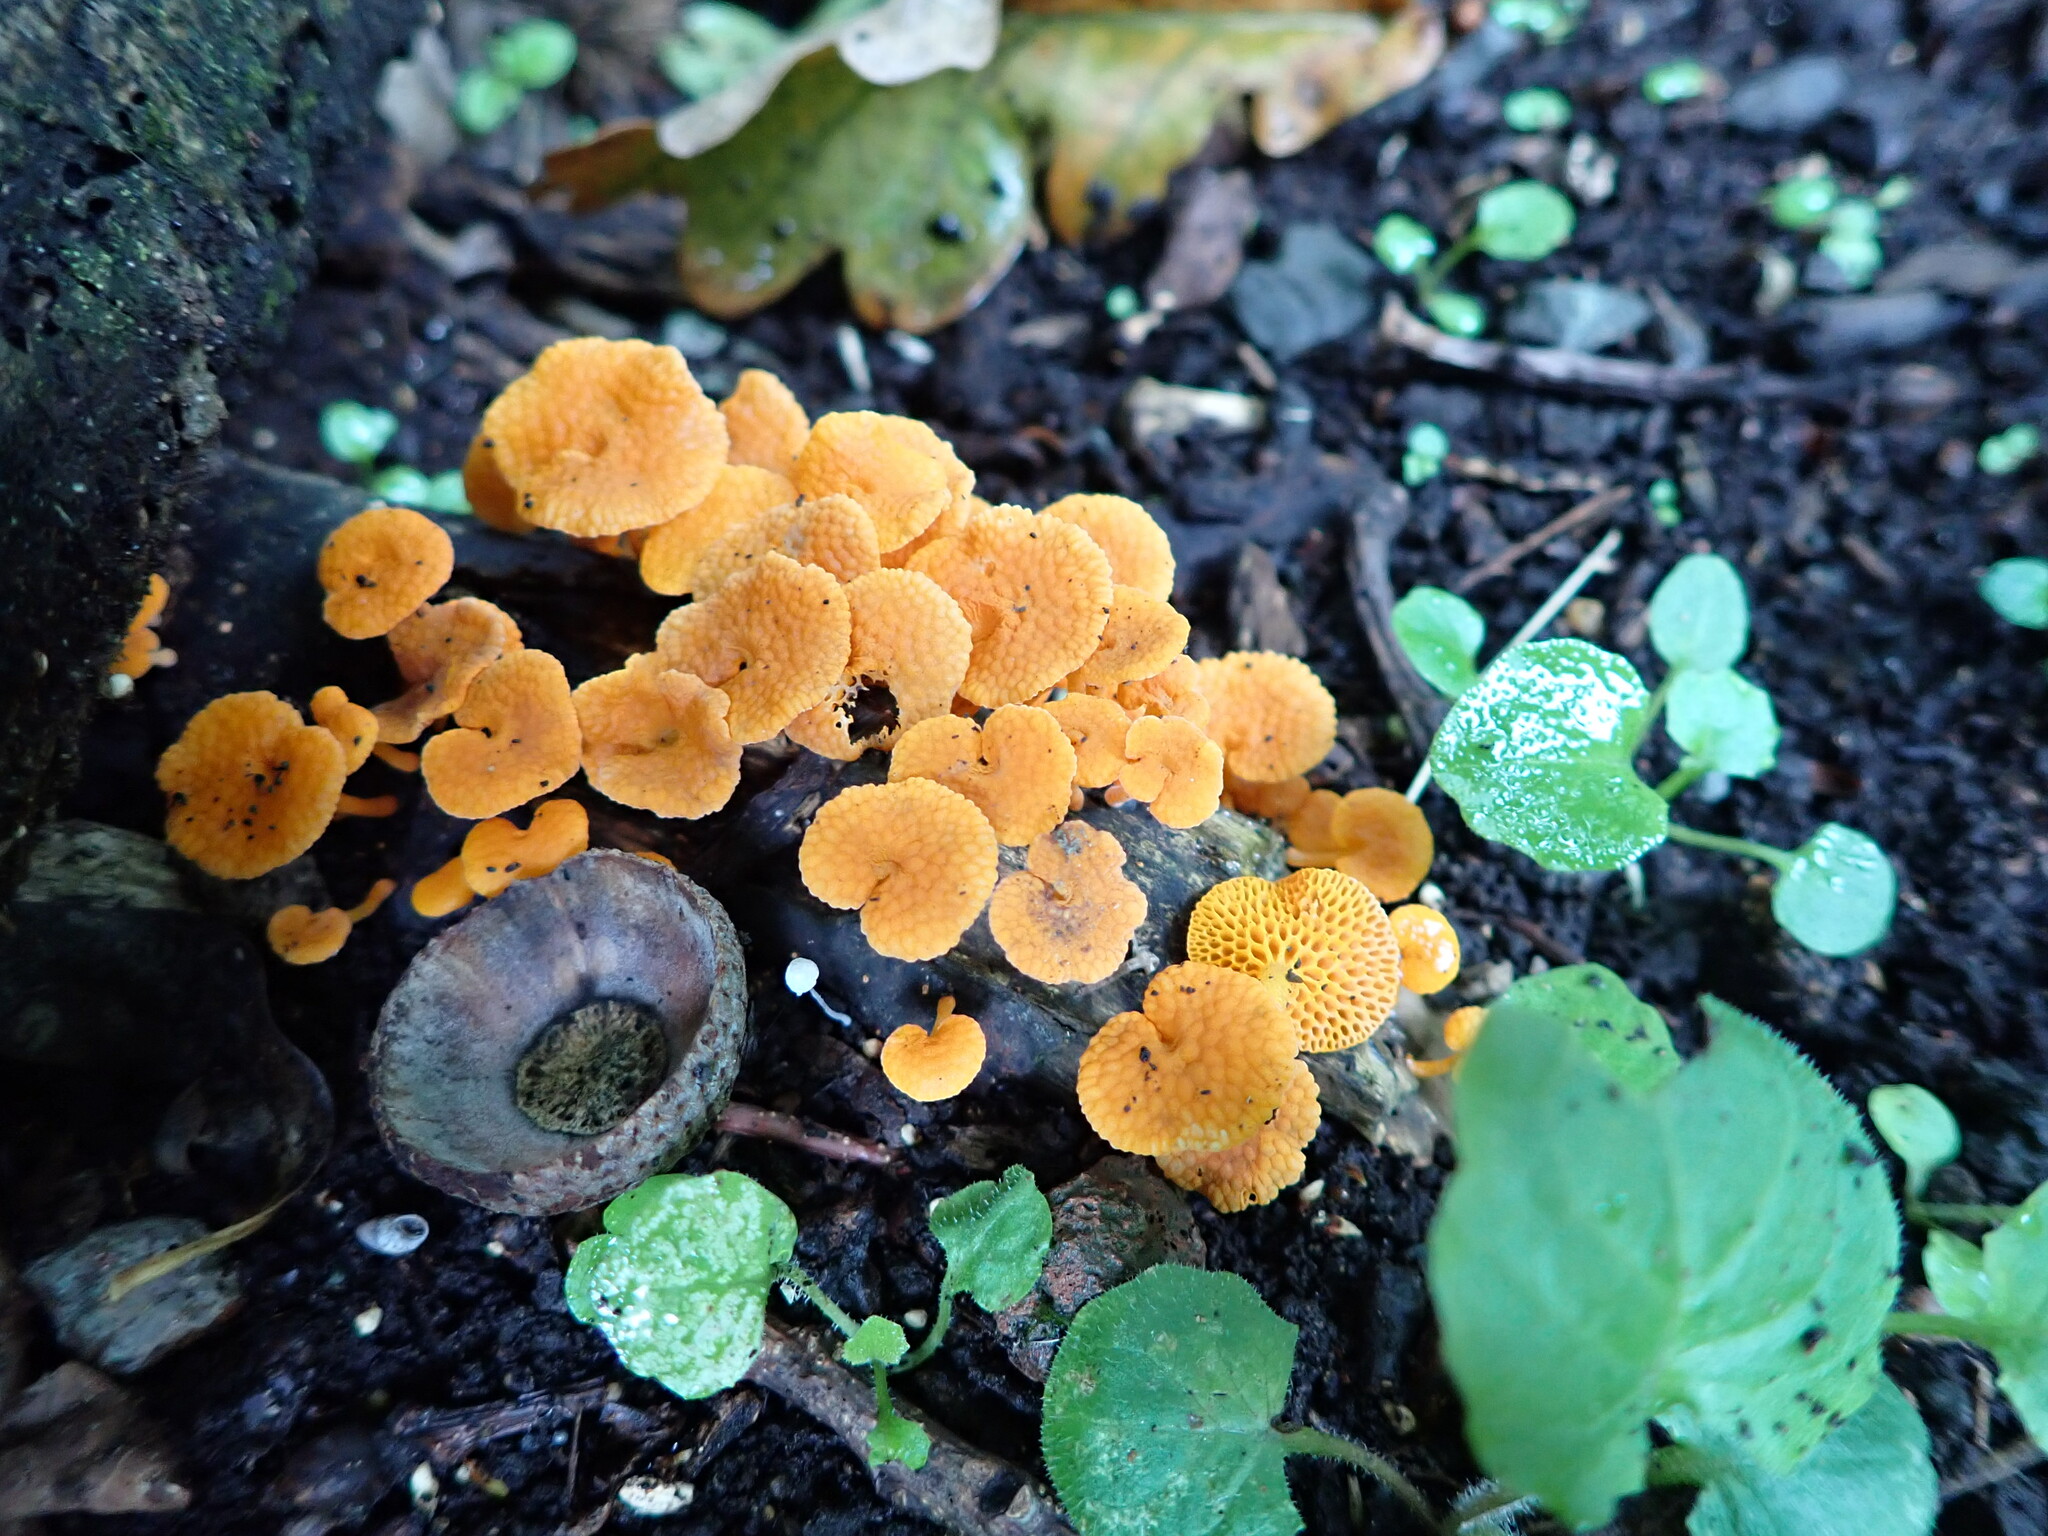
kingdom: Fungi
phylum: Basidiomycota
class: Agaricomycetes
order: Agaricales
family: Mycenaceae
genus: Favolaschia
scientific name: Favolaschia claudopus
